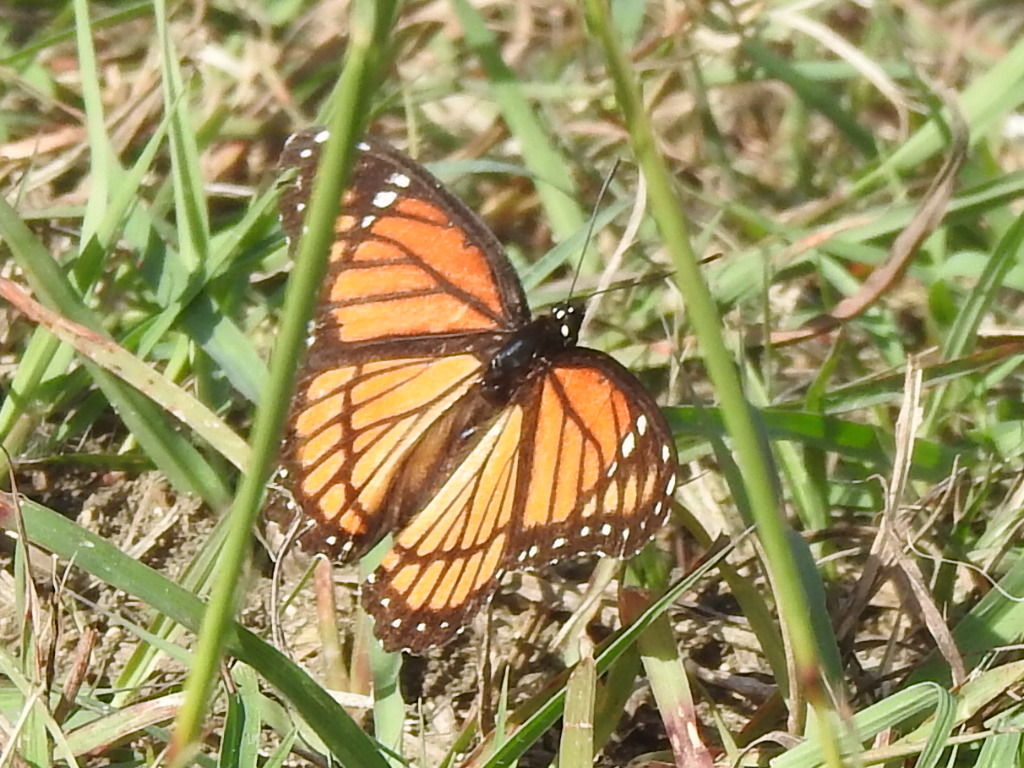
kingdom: Animalia
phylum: Arthropoda
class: Insecta
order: Lepidoptera
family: Nymphalidae
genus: Limenitis
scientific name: Limenitis archippus
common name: Viceroy
